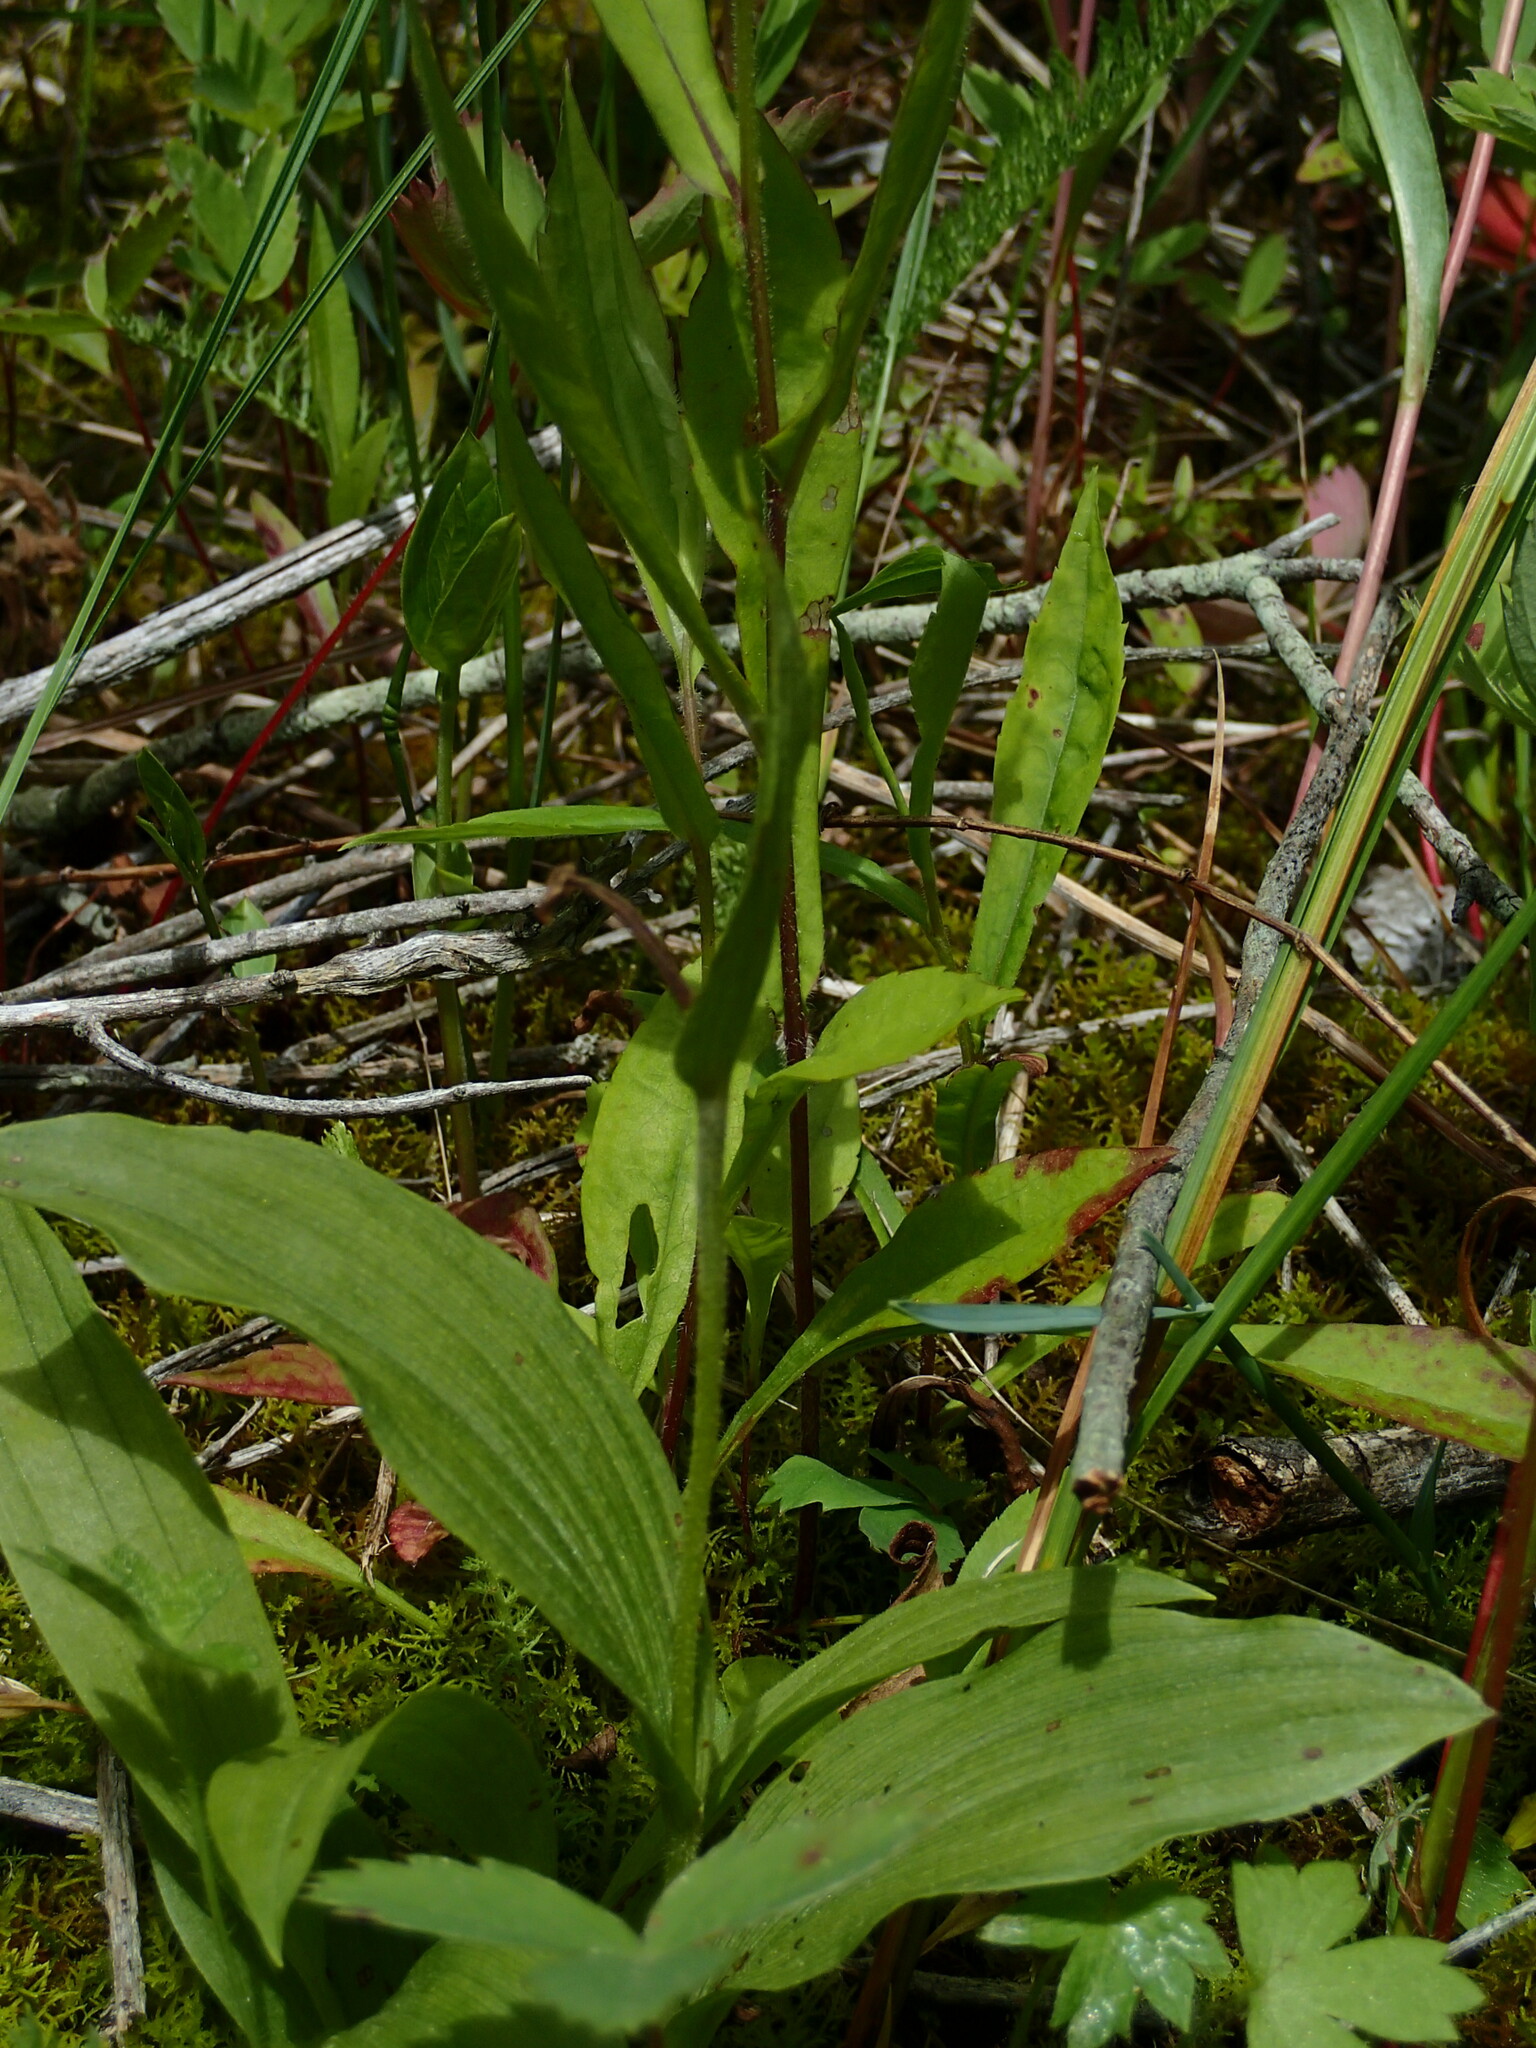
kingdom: Plantae
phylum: Tracheophyta
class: Liliopsida
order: Asparagales
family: Orchidaceae
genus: Cypripedium
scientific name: Cypripedium parviflorum
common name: American yellow lady's-slipper
